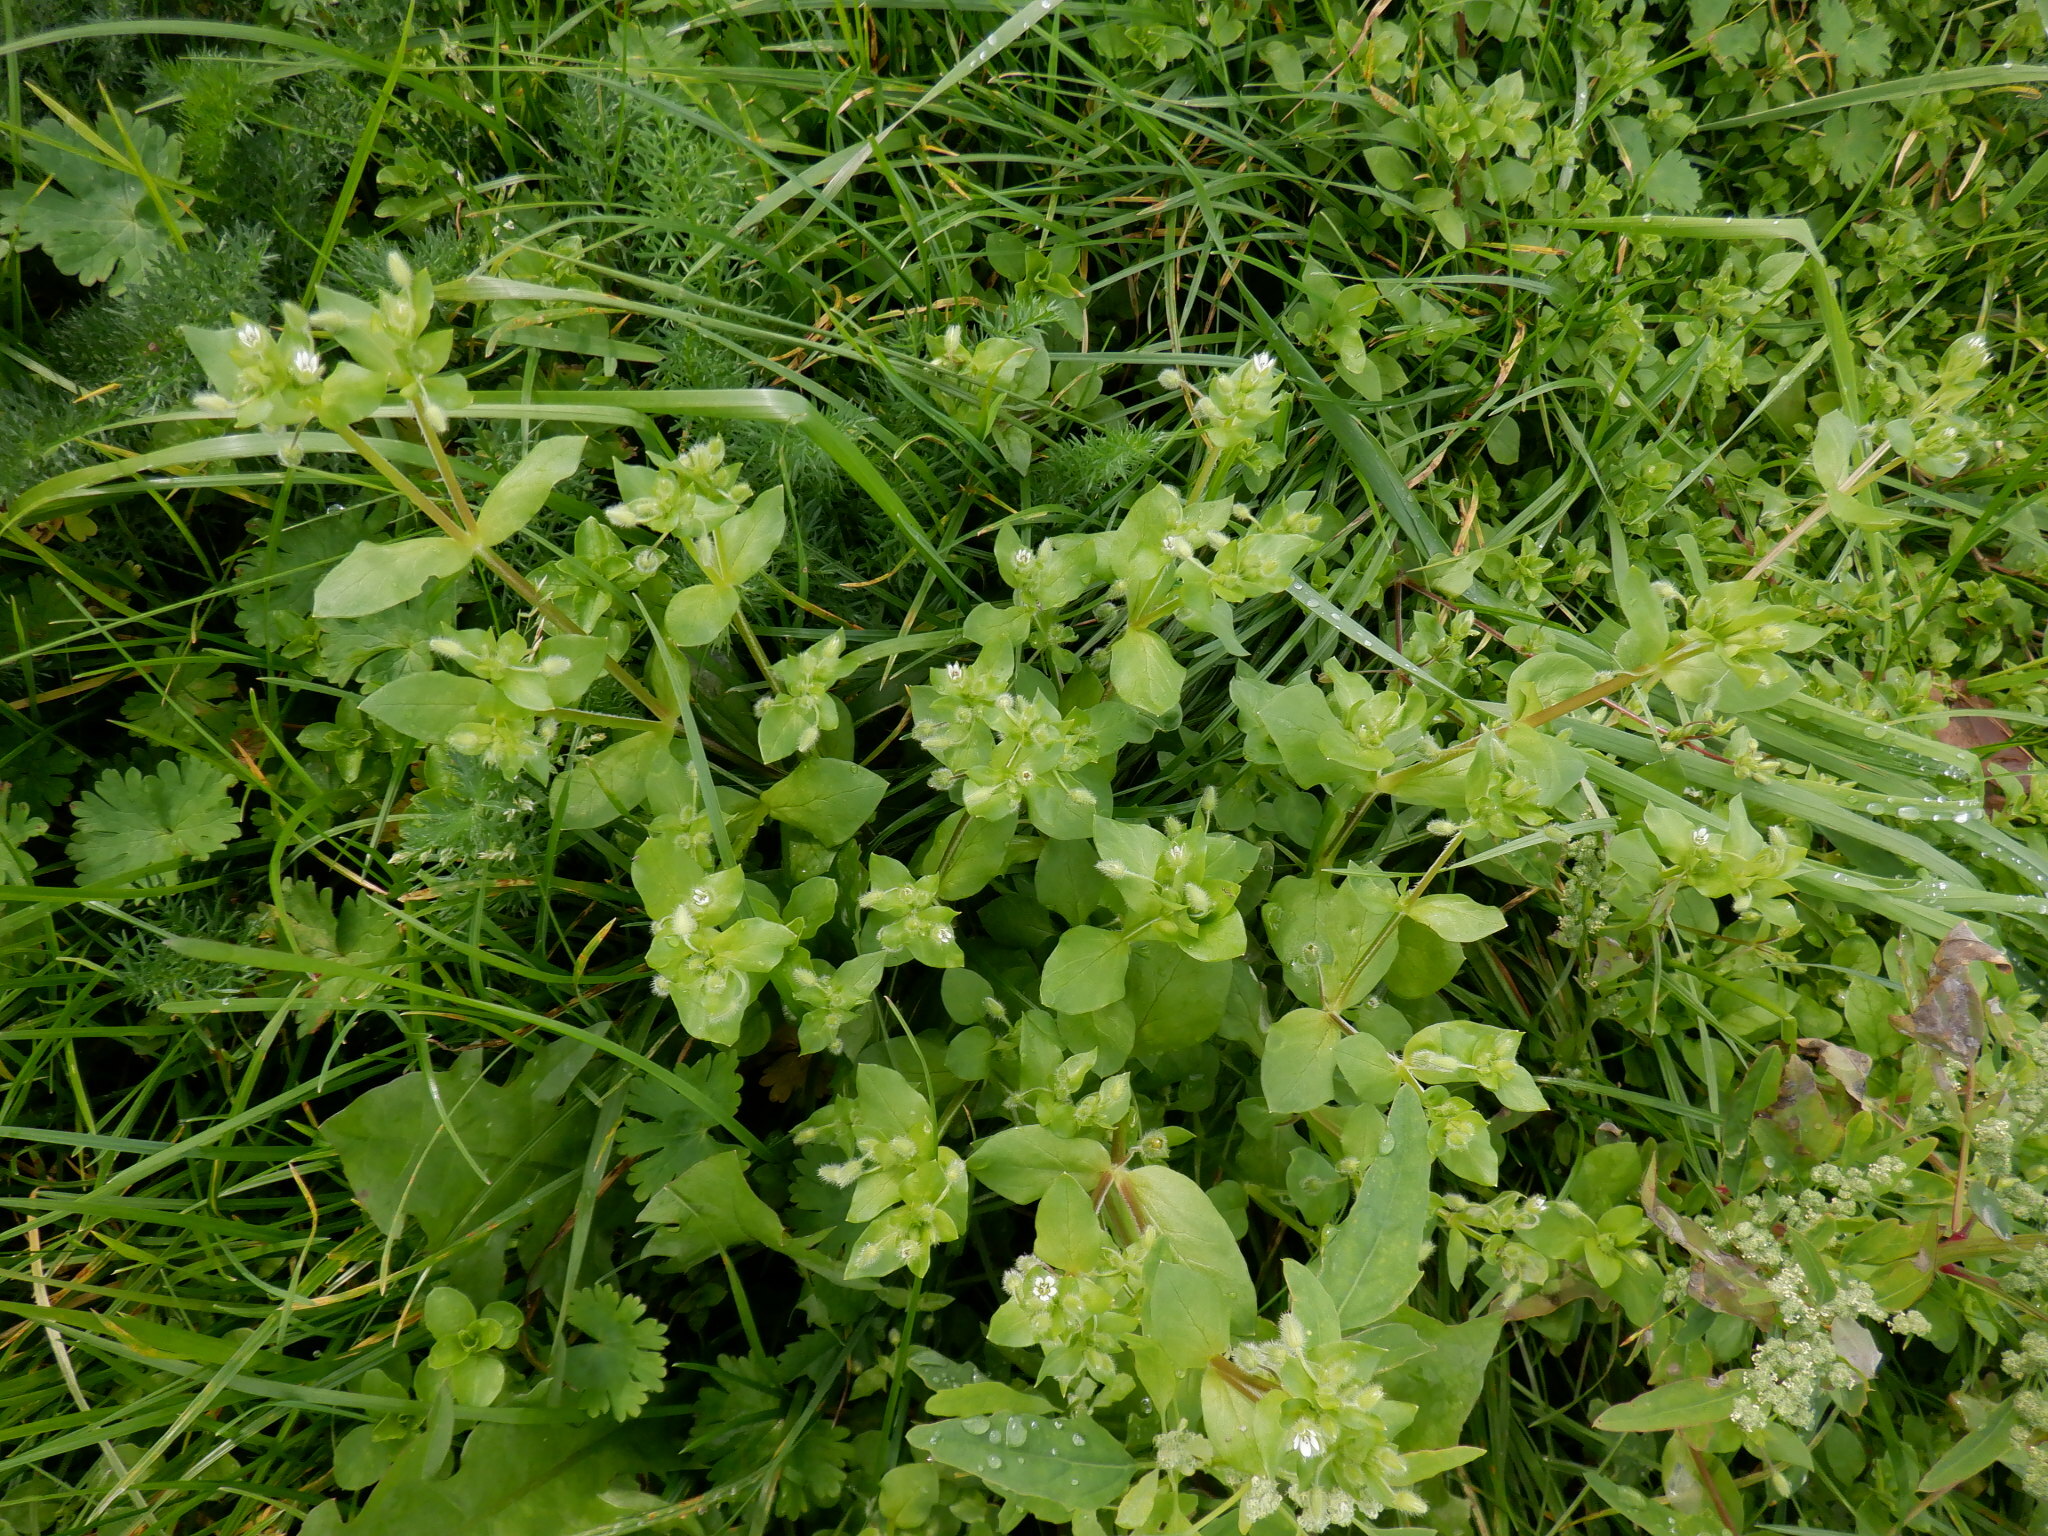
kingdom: Plantae
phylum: Tracheophyta
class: Magnoliopsida
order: Caryophyllales
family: Caryophyllaceae
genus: Stellaria
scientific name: Stellaria media
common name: Common chickweed
